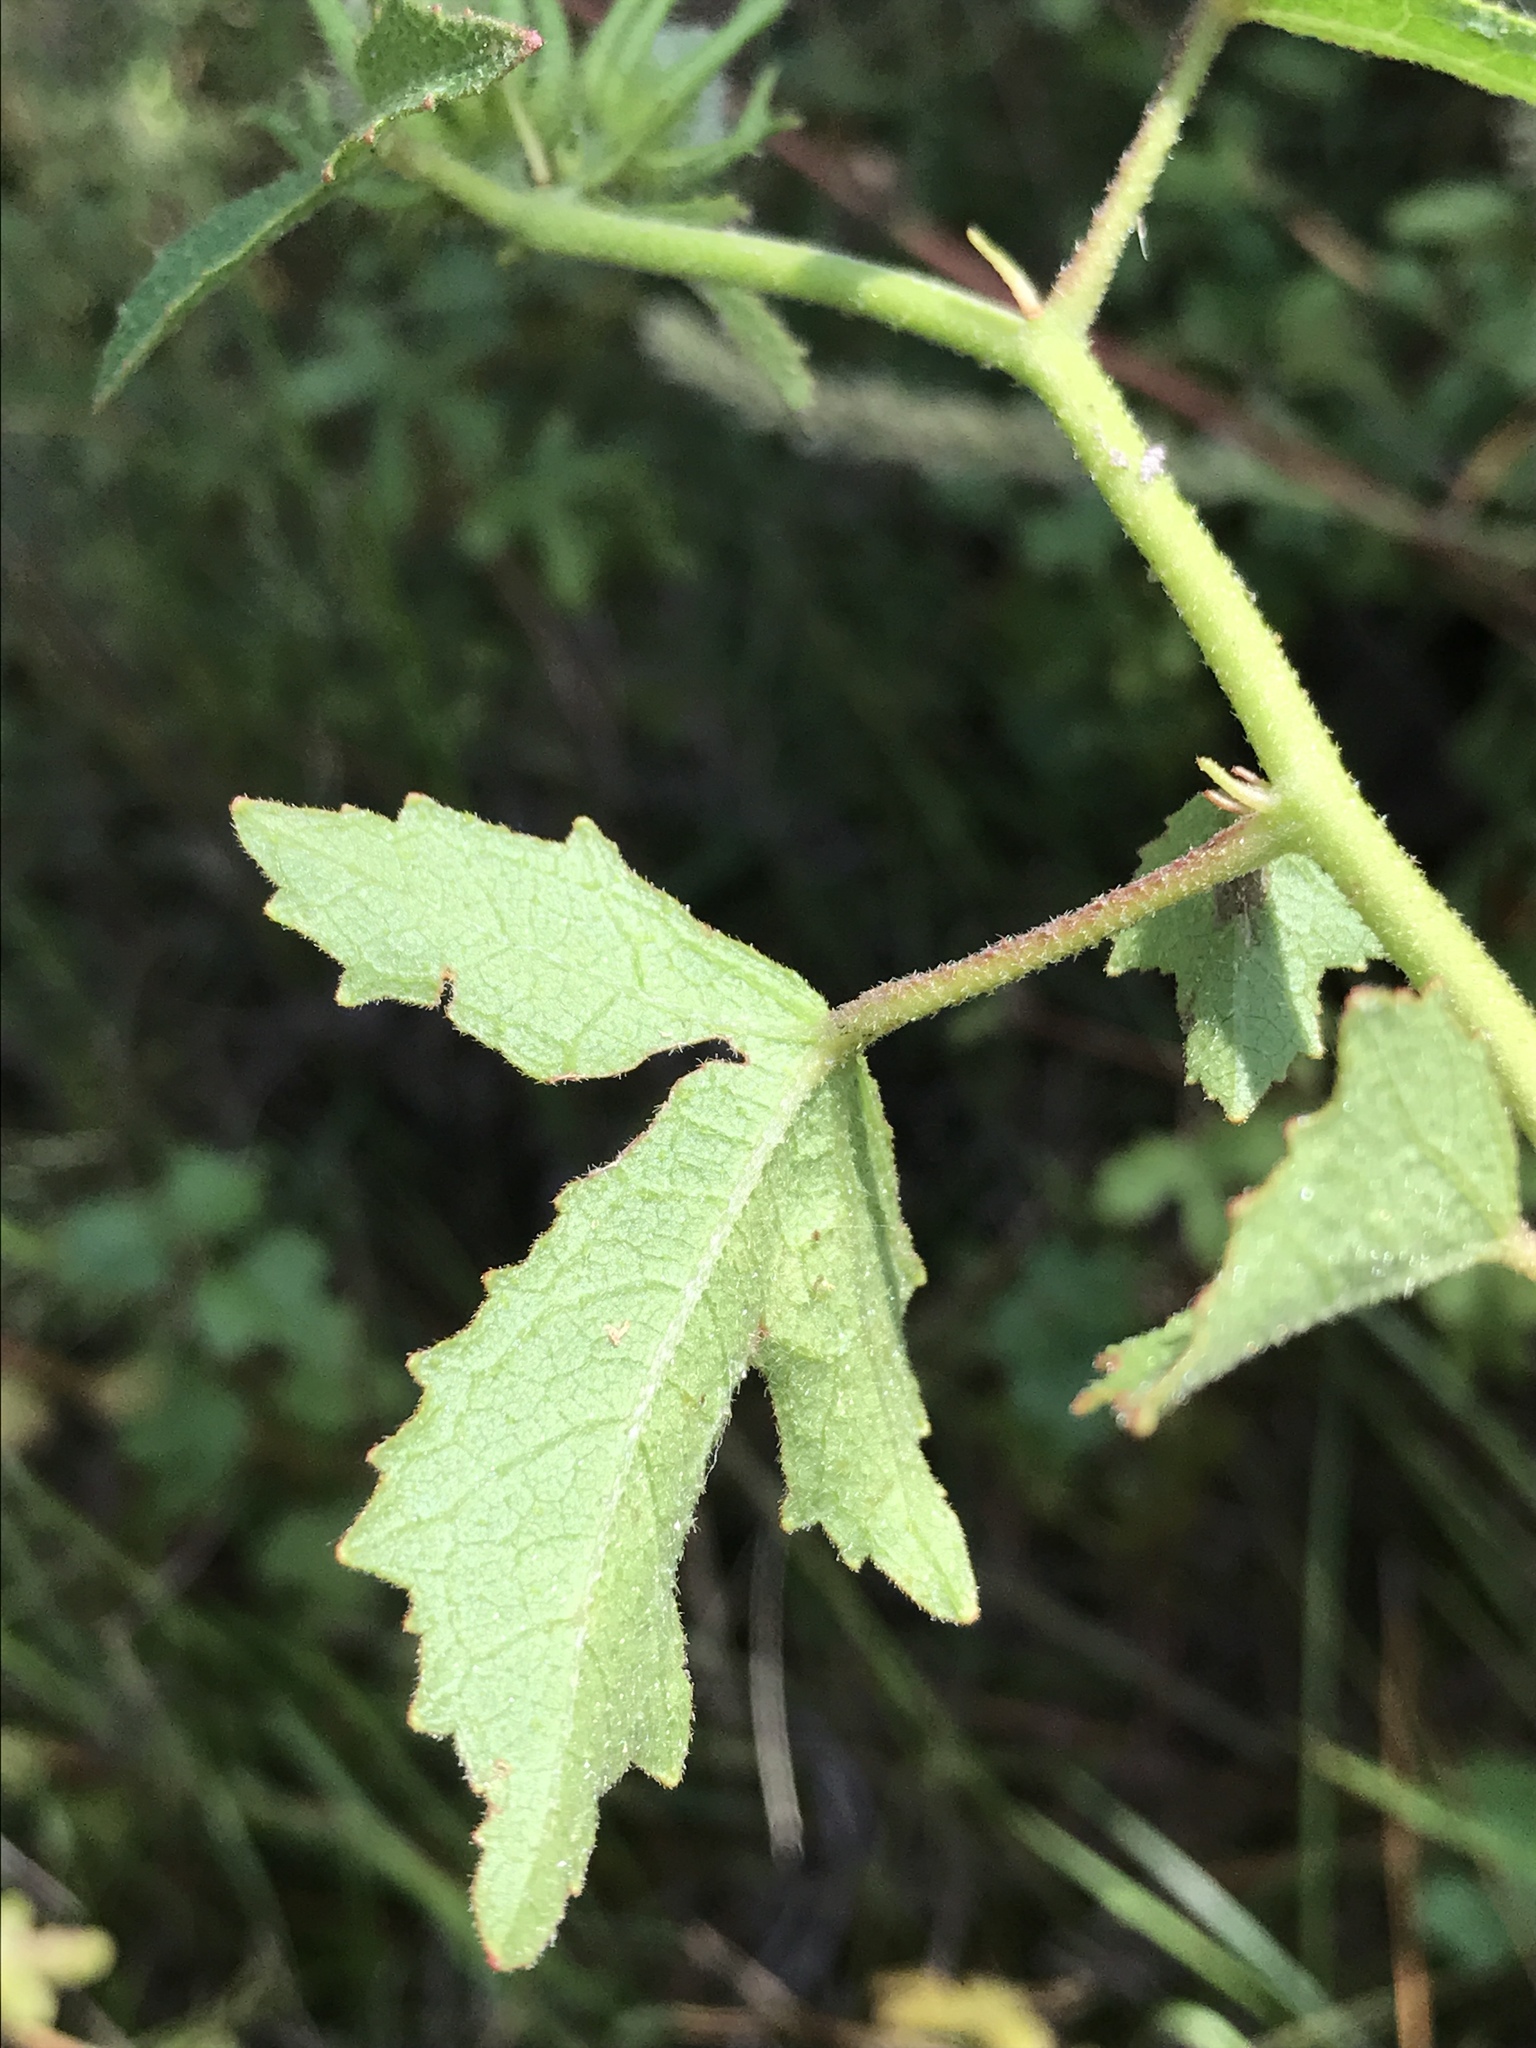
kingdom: Plantae
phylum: Tracheophyta
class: Magnoliopsida
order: Malvales
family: Malvaceae
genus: Hibiscus
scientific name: Hibiscus aculeatus
